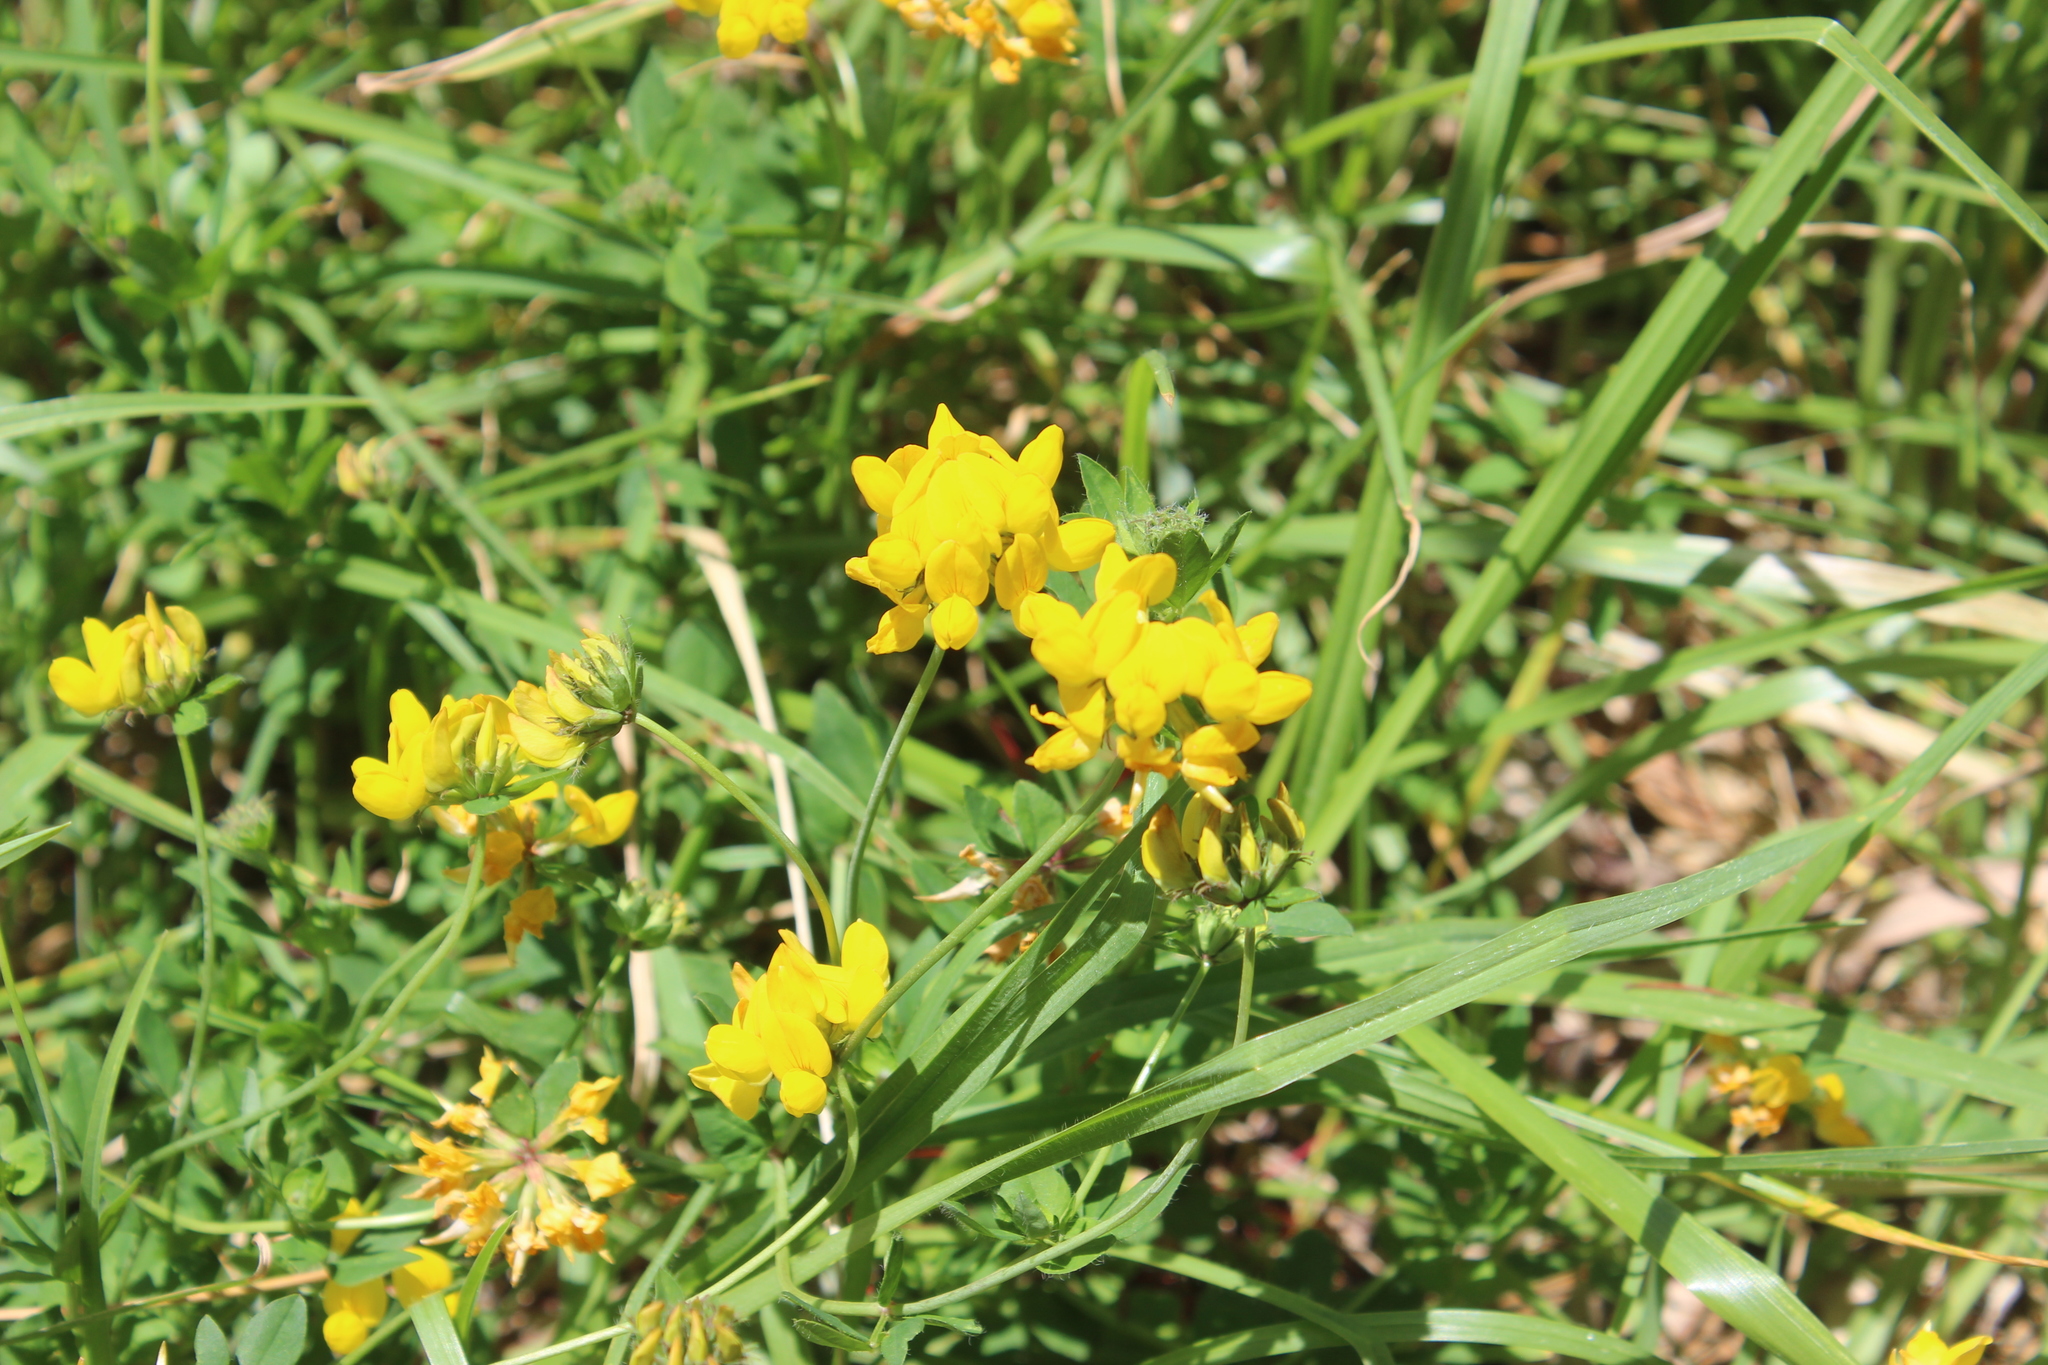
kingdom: Plantae
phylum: Tracheophyta
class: Magnoliopsida
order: Fabales
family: Fabaceae
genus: Lotus
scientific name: Lotus pedunculatus
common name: Greater birdsfoot-trefoil
